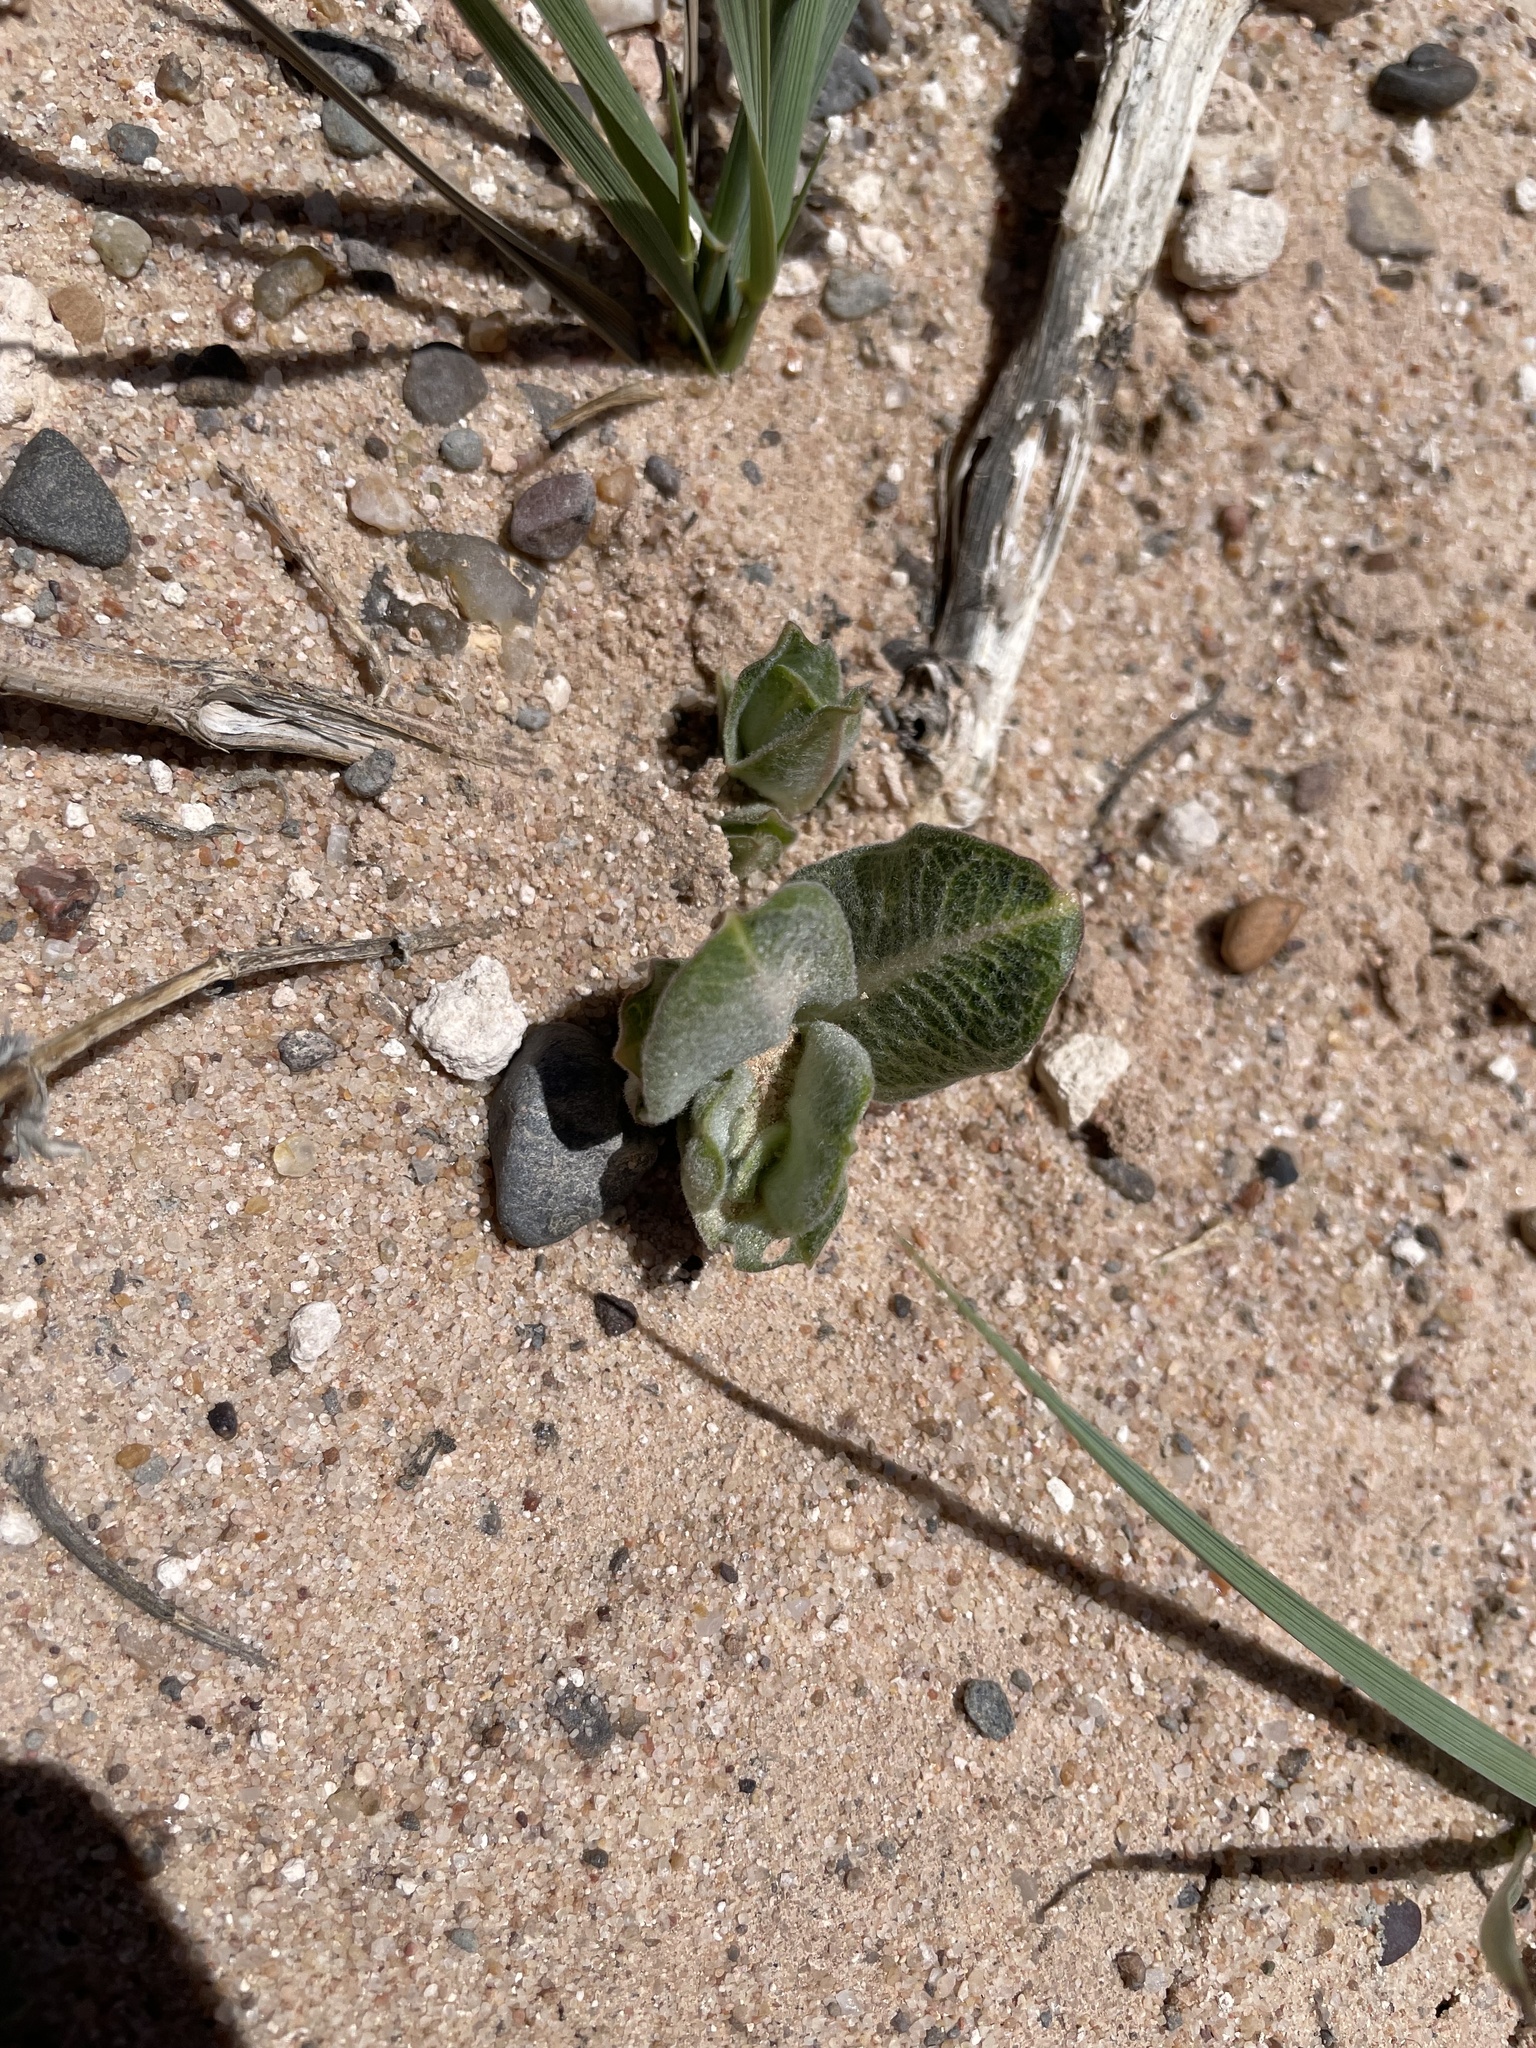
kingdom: Plantae
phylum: Tracheophyta
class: Magnoliopsida
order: Gentianales
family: Apocynaceae
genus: Asclepias
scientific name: Asclepias arenaria
